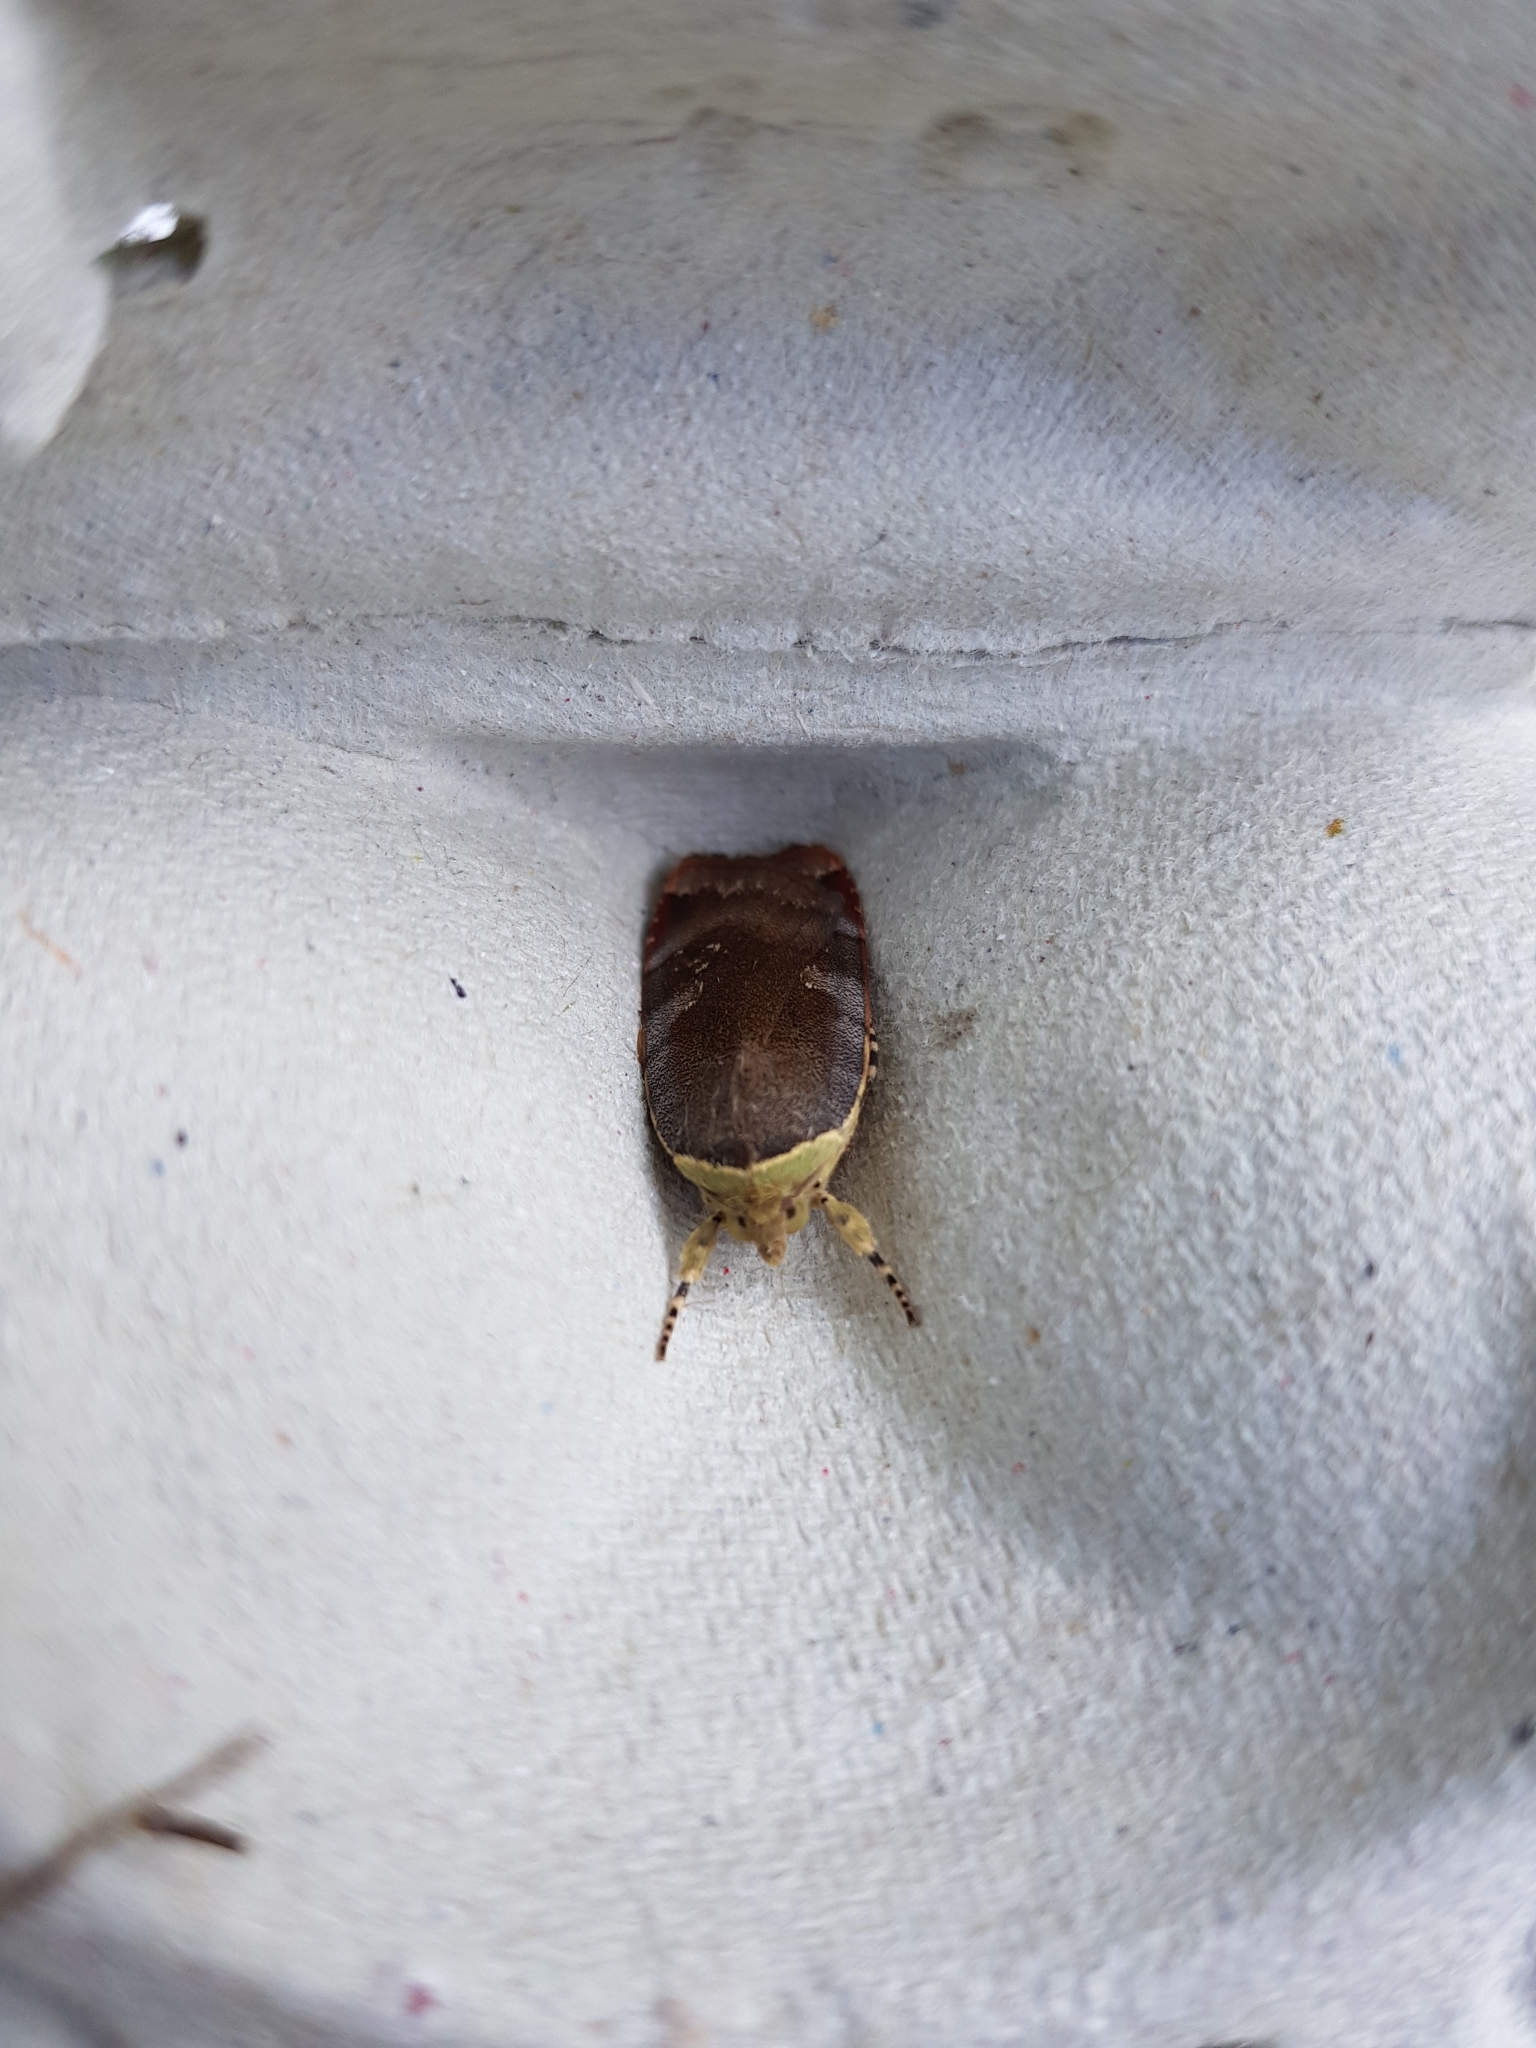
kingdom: Animalia
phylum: Arthropoda
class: Insecta
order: Lepidoptera
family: Noctuidae
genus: Noctua
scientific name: Noctua janthe
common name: Lesser broad-bordered yellow underwing
